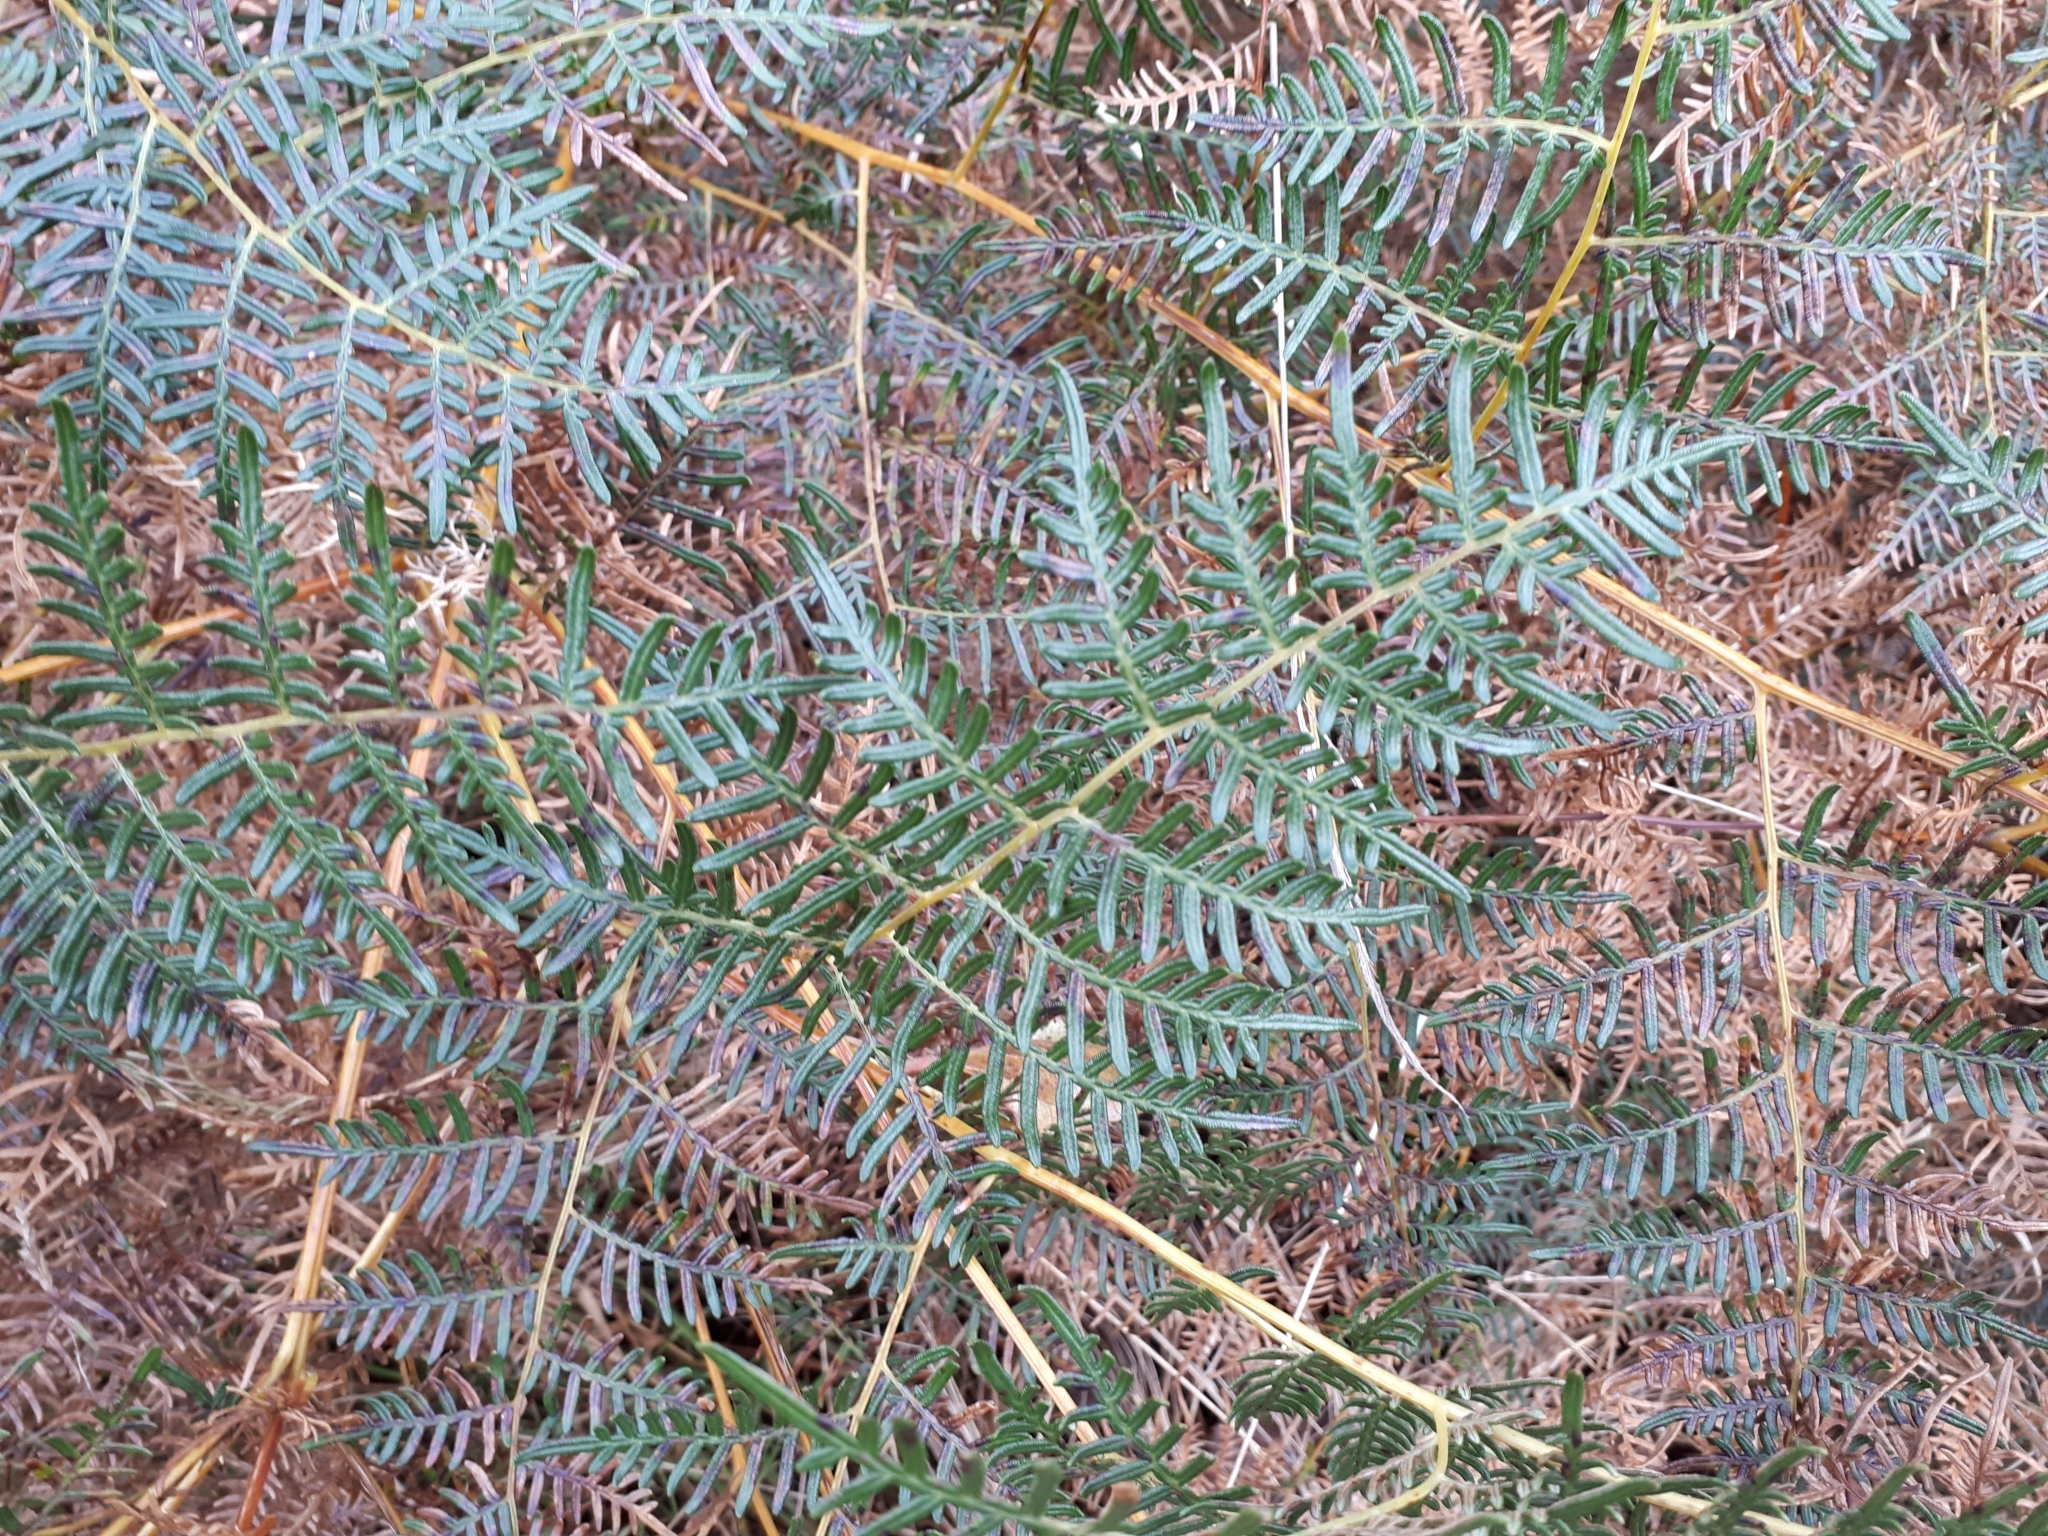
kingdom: Plantae
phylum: Tracheophyta
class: Polypodiopsida
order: Polypodiales
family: Dennstaedtiaceae
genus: Pteridium
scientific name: Pteridium esculentum
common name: Bracken fern
